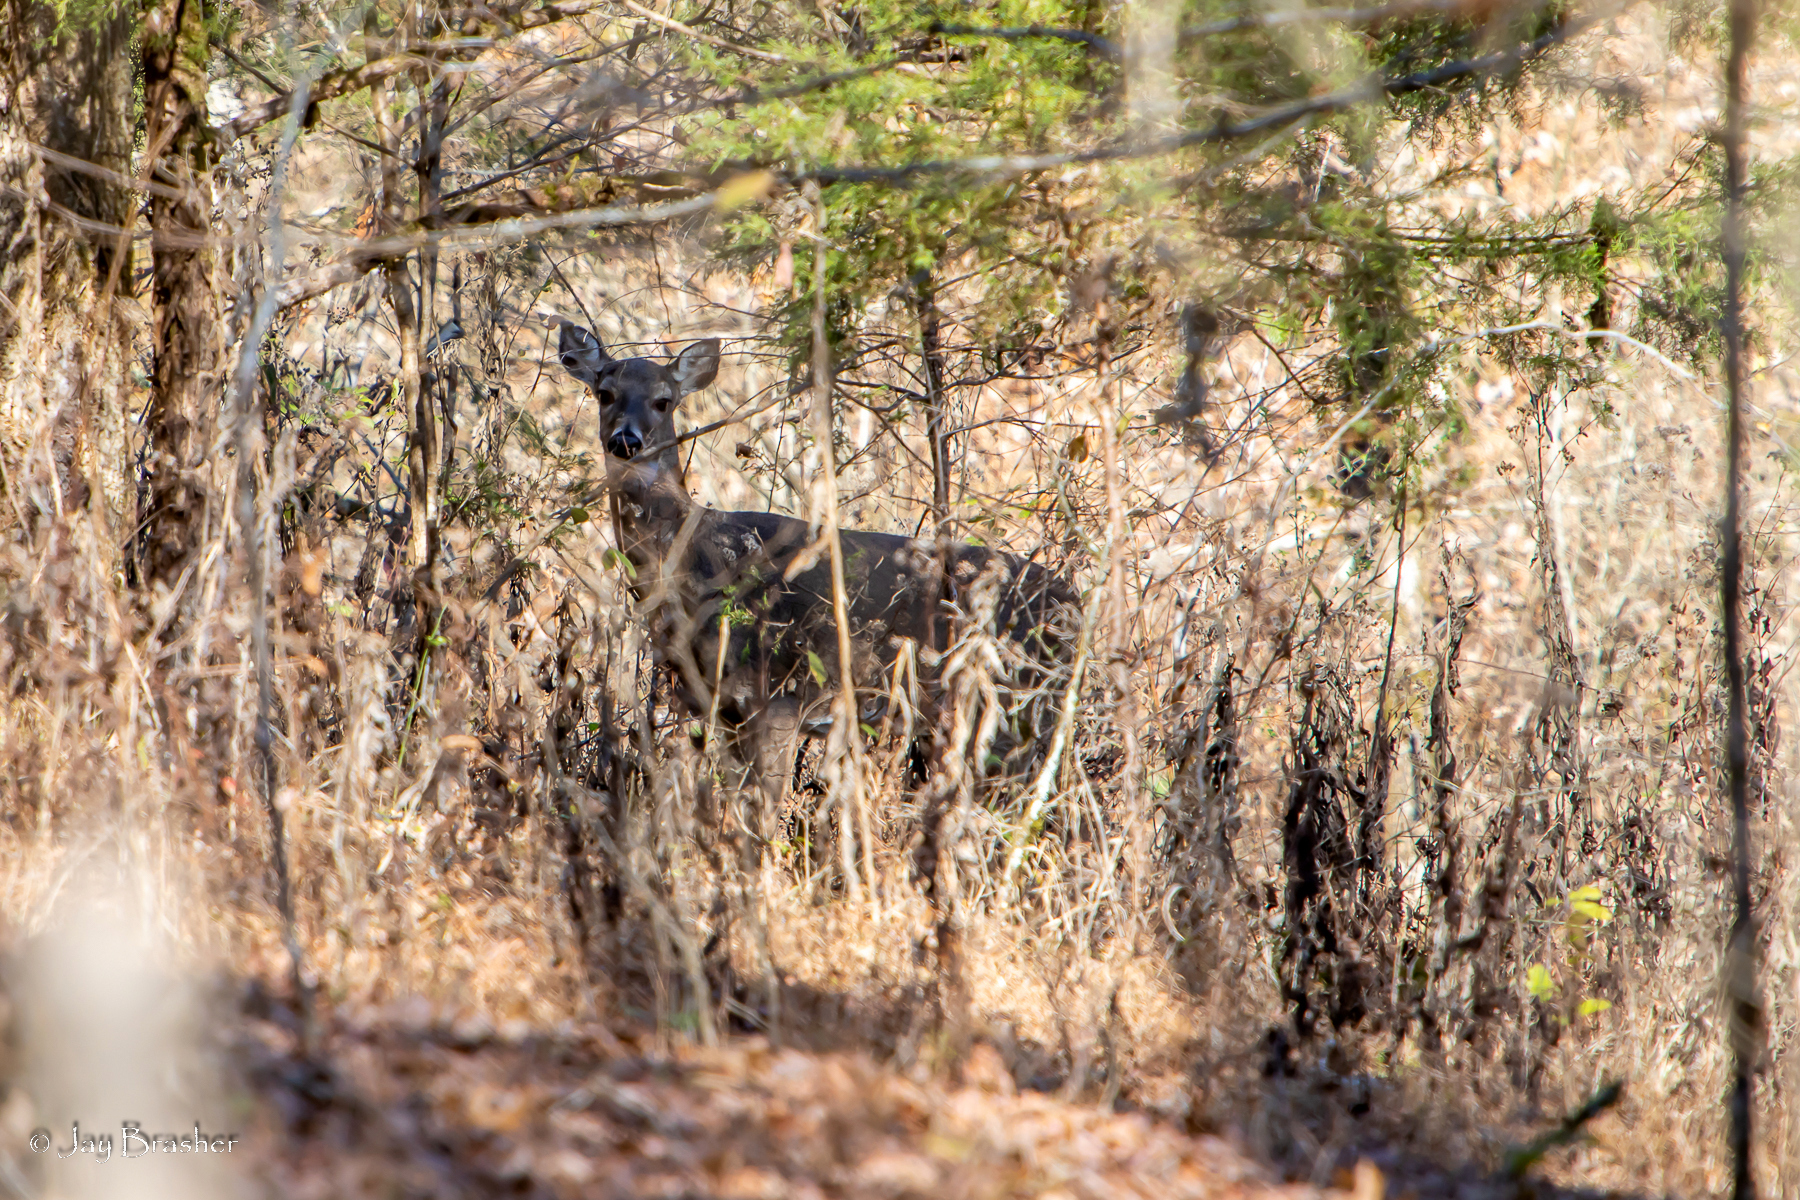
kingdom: Animalia
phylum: Chordata
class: Mammalia
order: Artiodactyla
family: Cervidae
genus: Odocoileus
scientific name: Odocoileus virginianus
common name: White-tailed deer
